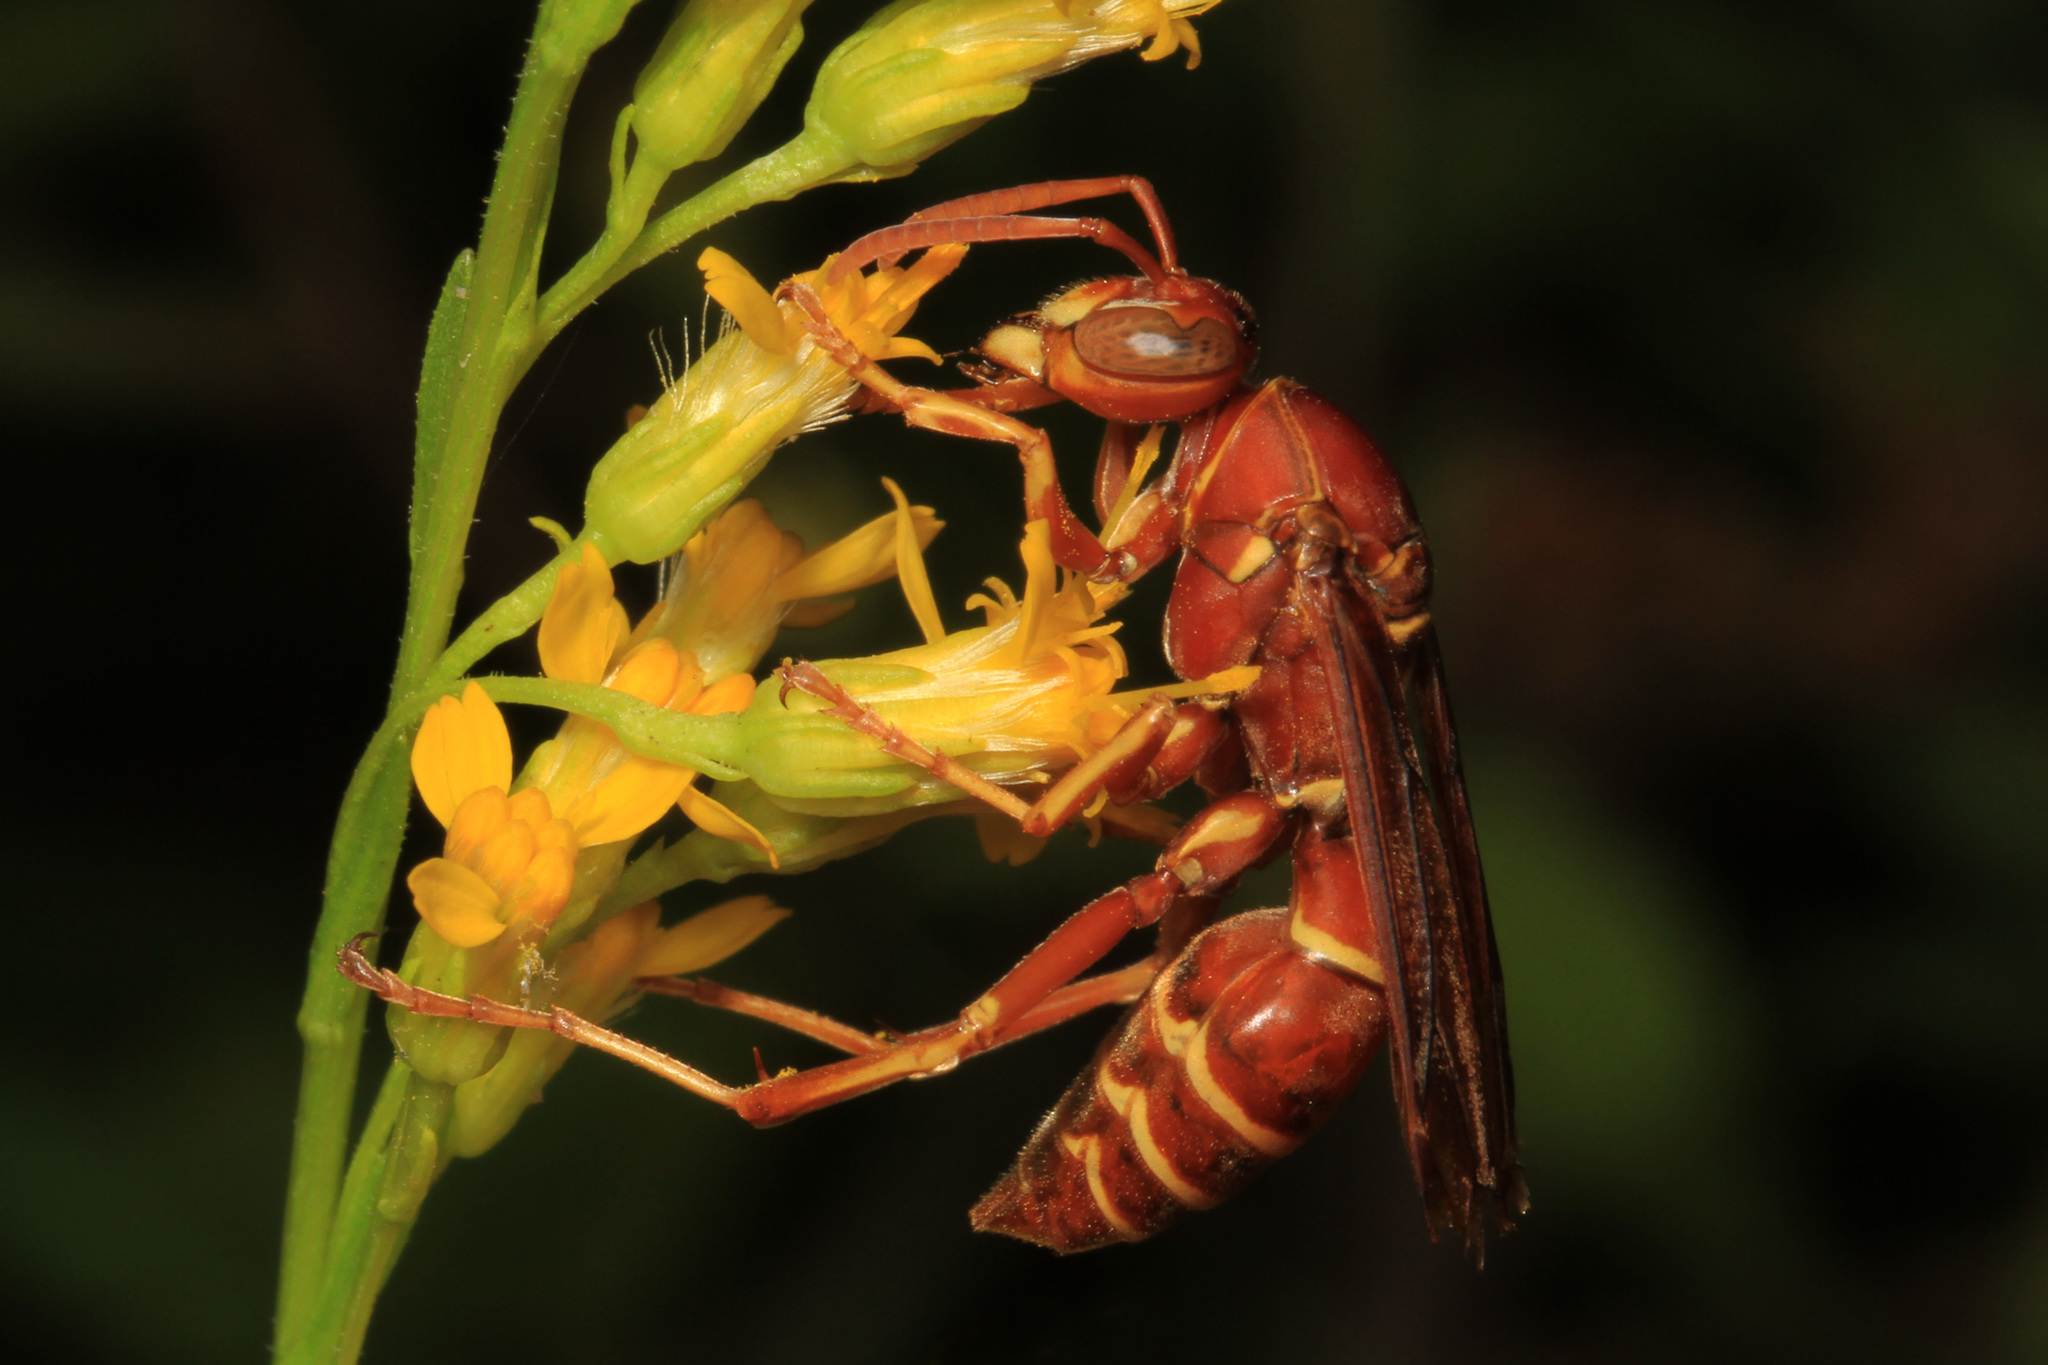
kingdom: Animalia
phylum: Arthropoda
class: Insecta
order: Hymenoptera
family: Eumenidae
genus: Polistes
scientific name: Polistes bellicosus
